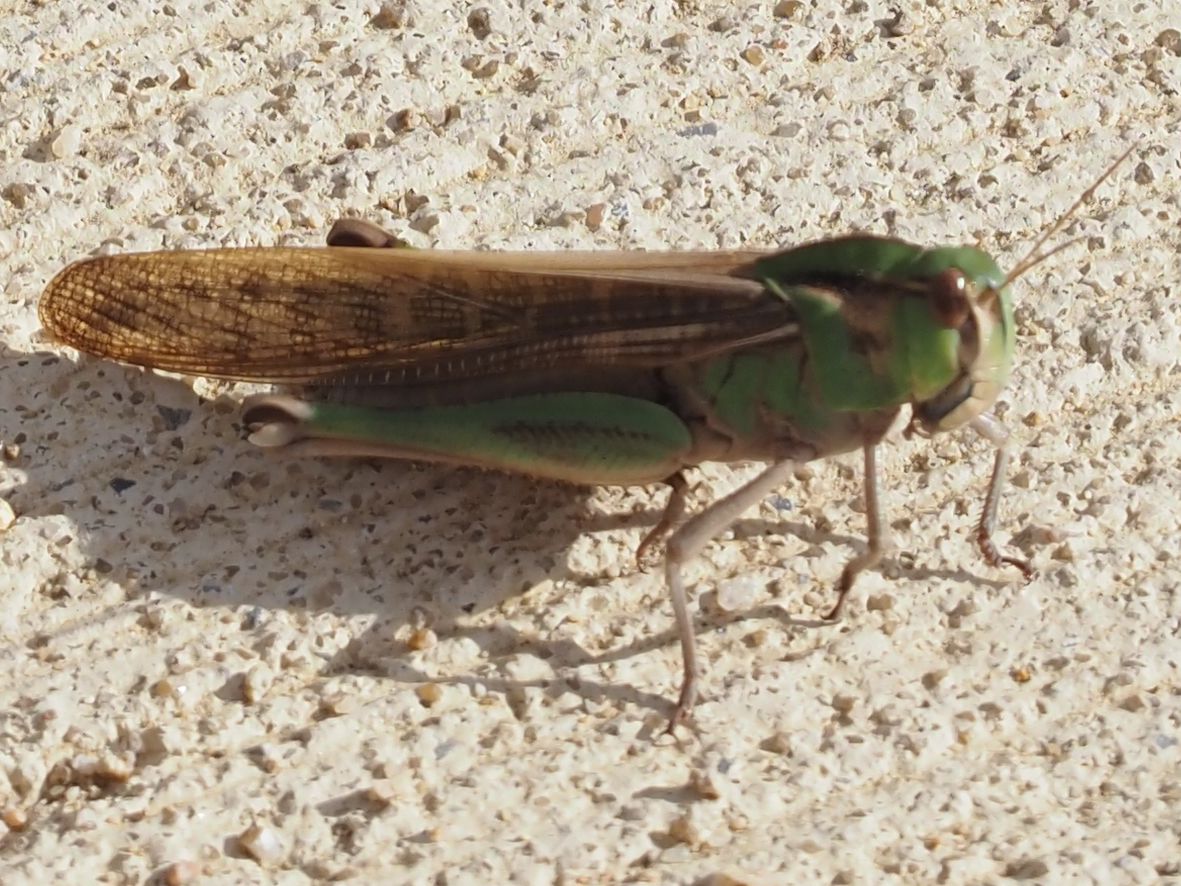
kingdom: Animalia
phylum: Arthropoda
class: Insecta
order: Orthoptera
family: Acrididae
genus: Locusta
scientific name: Locusta migratoria
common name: Migratory locust
